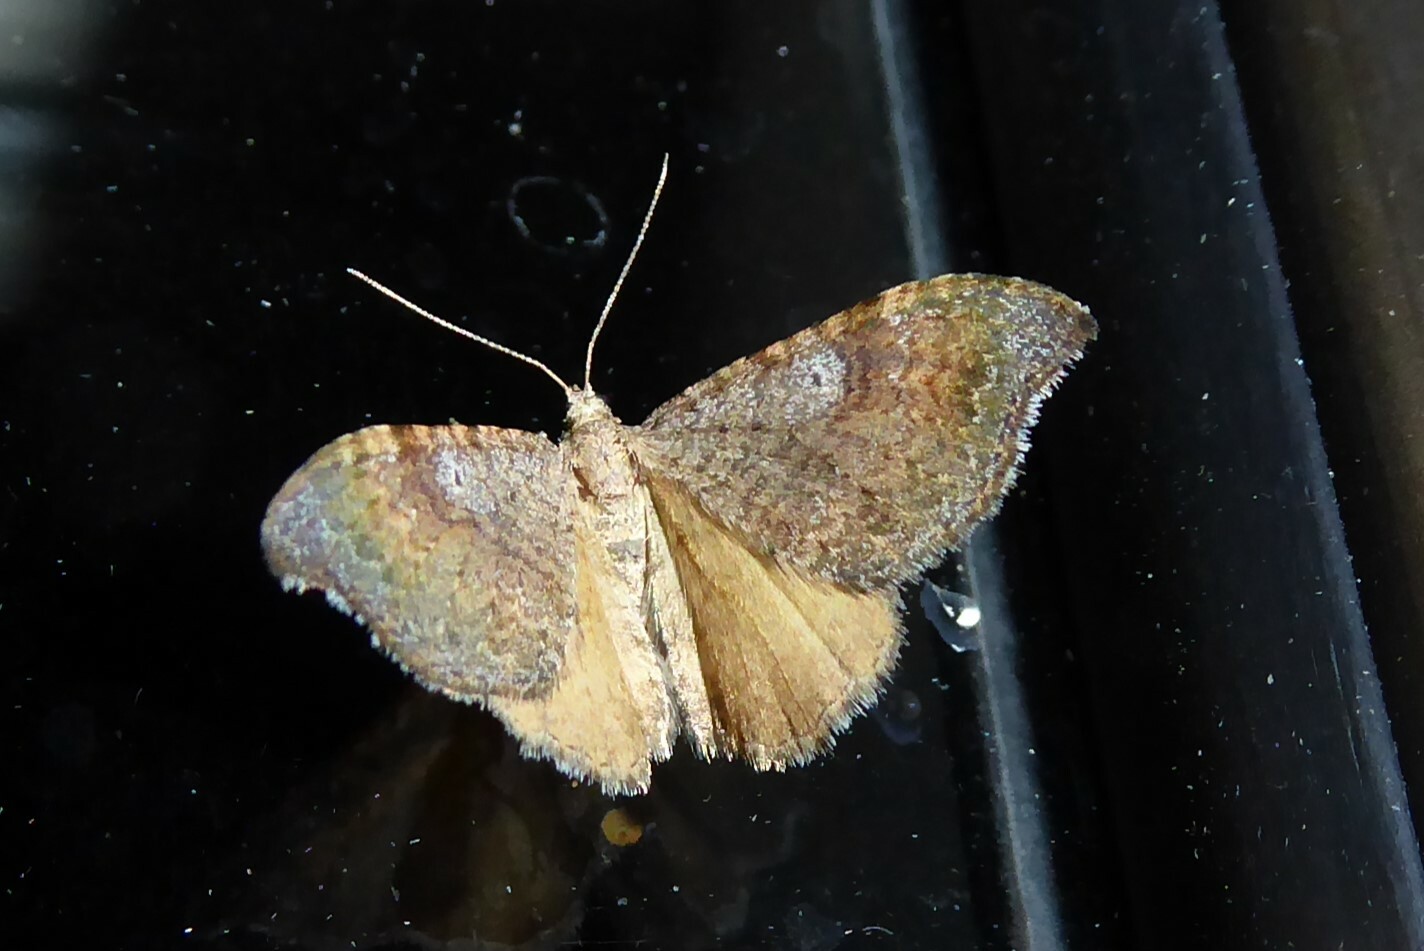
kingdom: Animalia
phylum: Arthropoda
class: Insecta
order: Lepidoptera
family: Geometridae
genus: Homodotis
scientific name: Homodotis megaspilata
